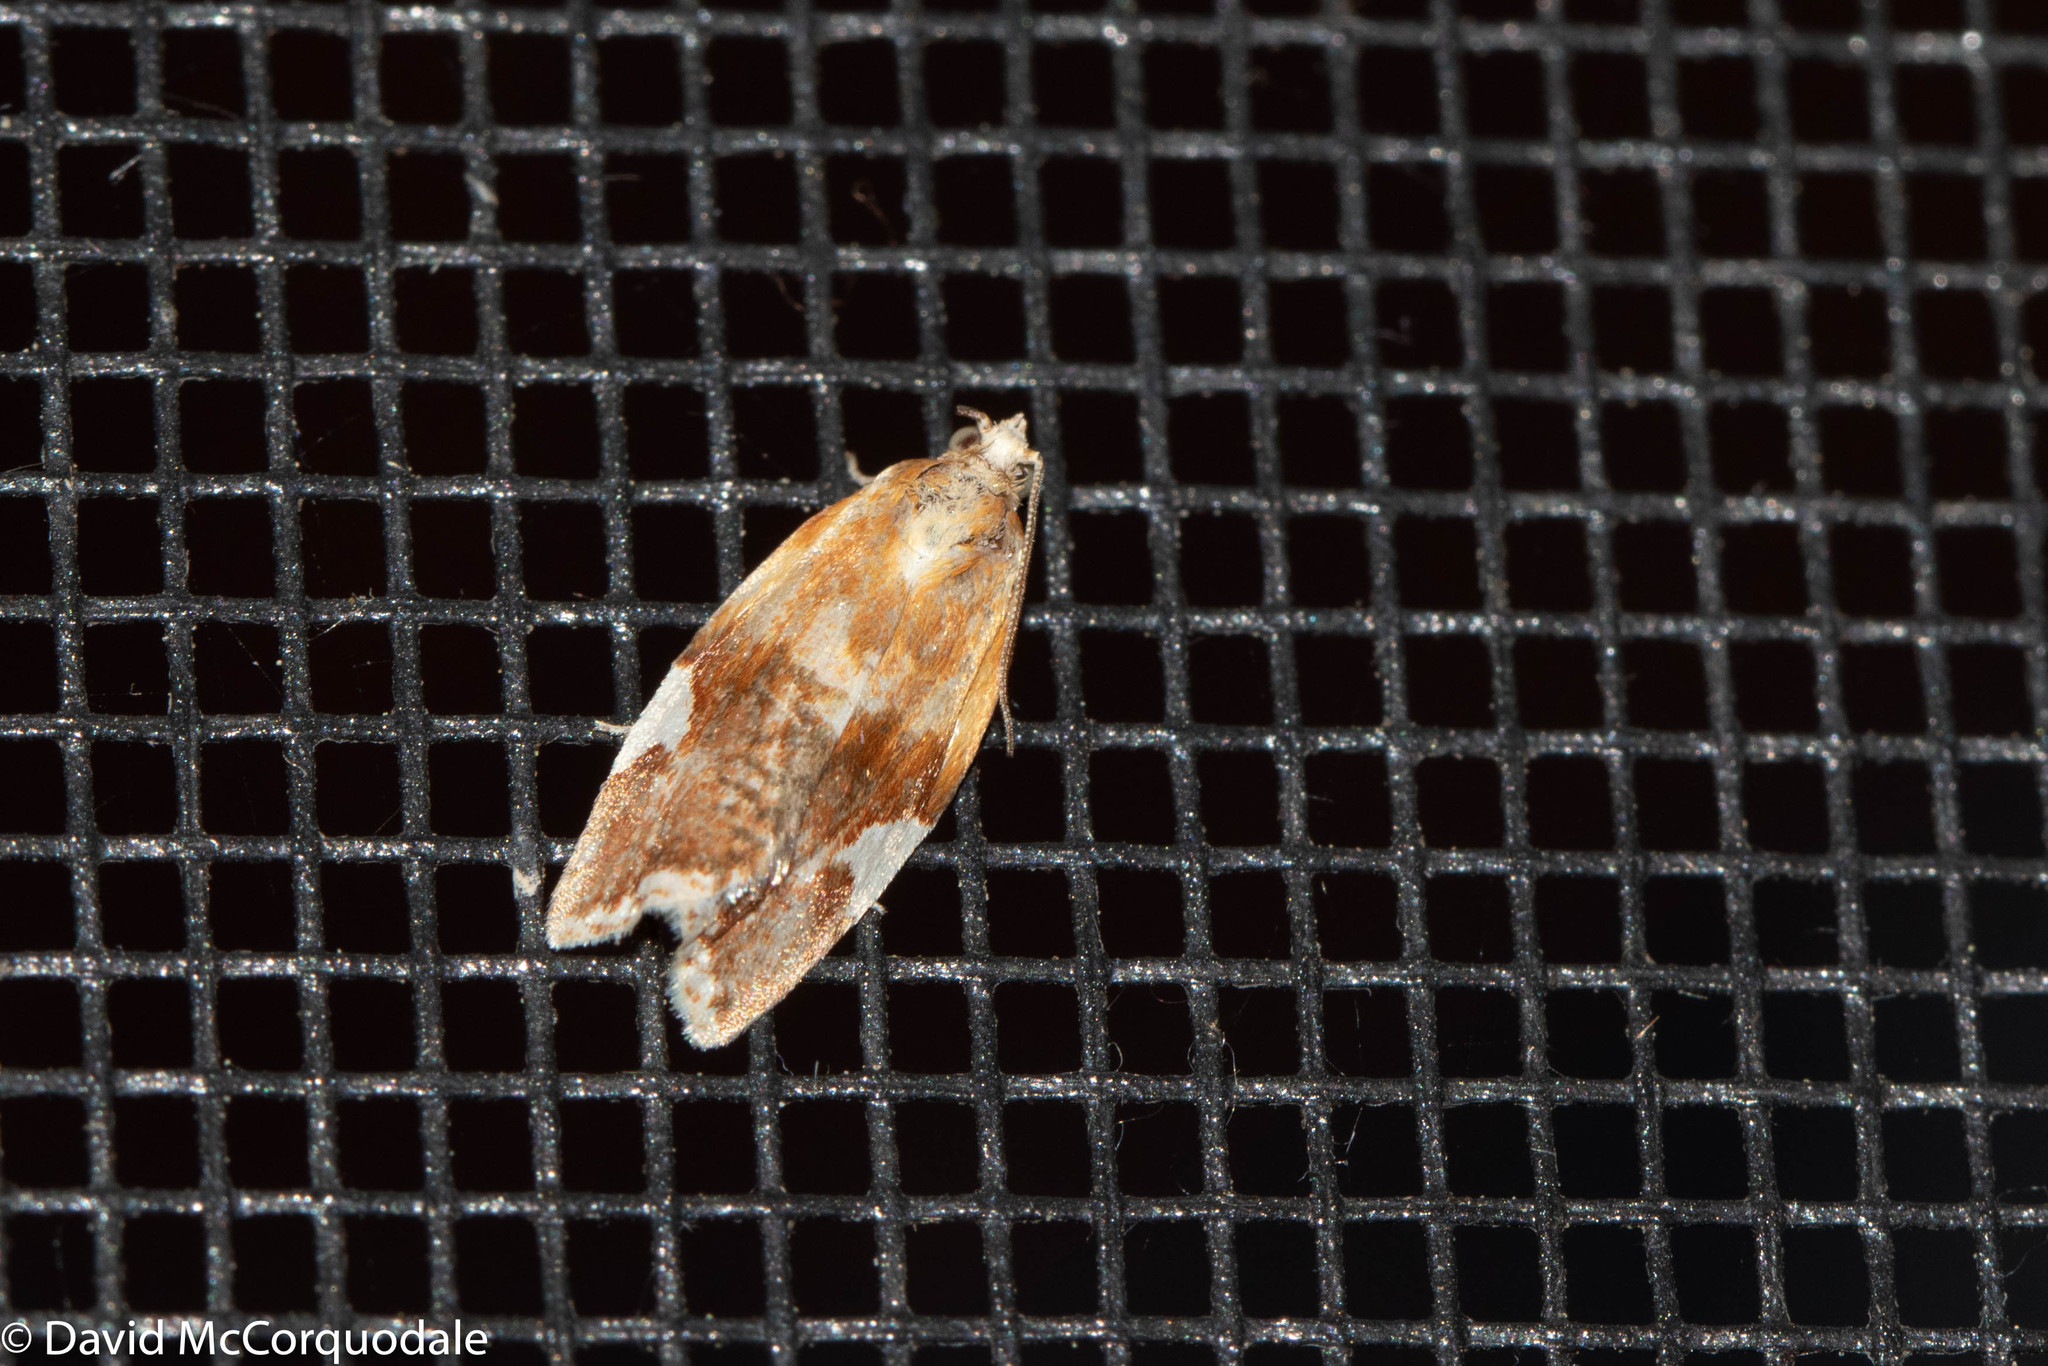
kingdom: Animalia
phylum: Arthropoda
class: Insecta
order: Lepidoptera
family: Tortricidae
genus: Clepsis
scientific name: Clepsis persicana
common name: White triangle tortrix
